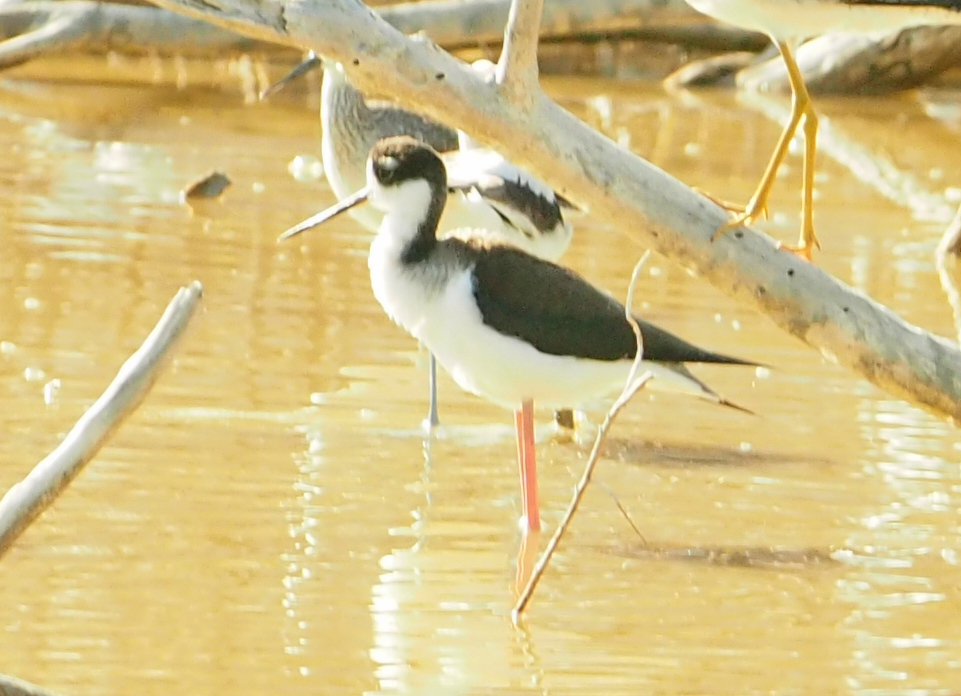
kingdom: Animalia
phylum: Chordata
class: Aves
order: Charadriiformes
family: Recurvirostridae
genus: Himantopus
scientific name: Himantopus mexicanus
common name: Black-necked stilt
